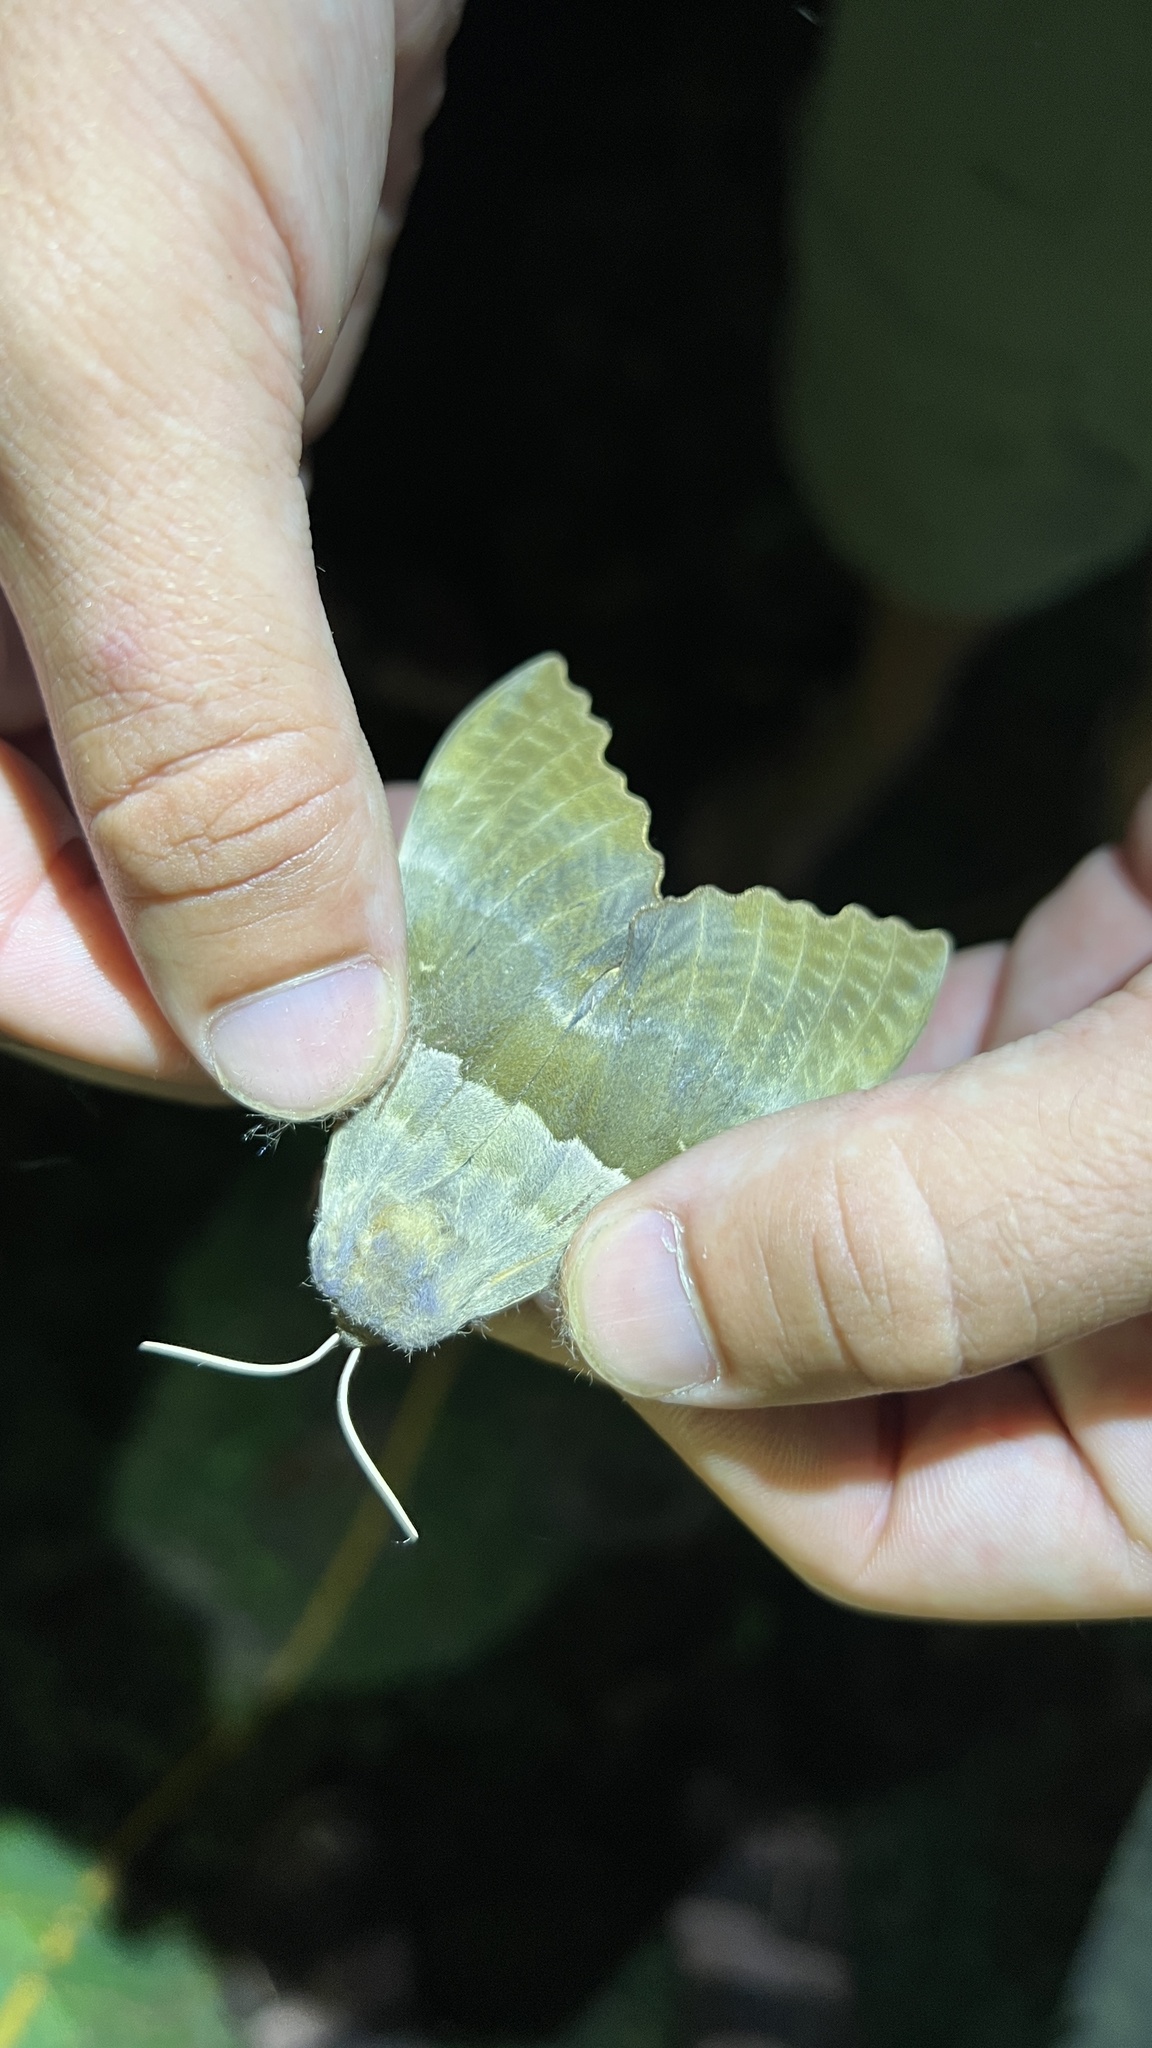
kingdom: Animalia
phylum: Arthropoda
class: Insecta
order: Lepidoptera
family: Sphingidae
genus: Pachysphinx
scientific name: Pachysphinx modesta
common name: Big poplar sphinx
